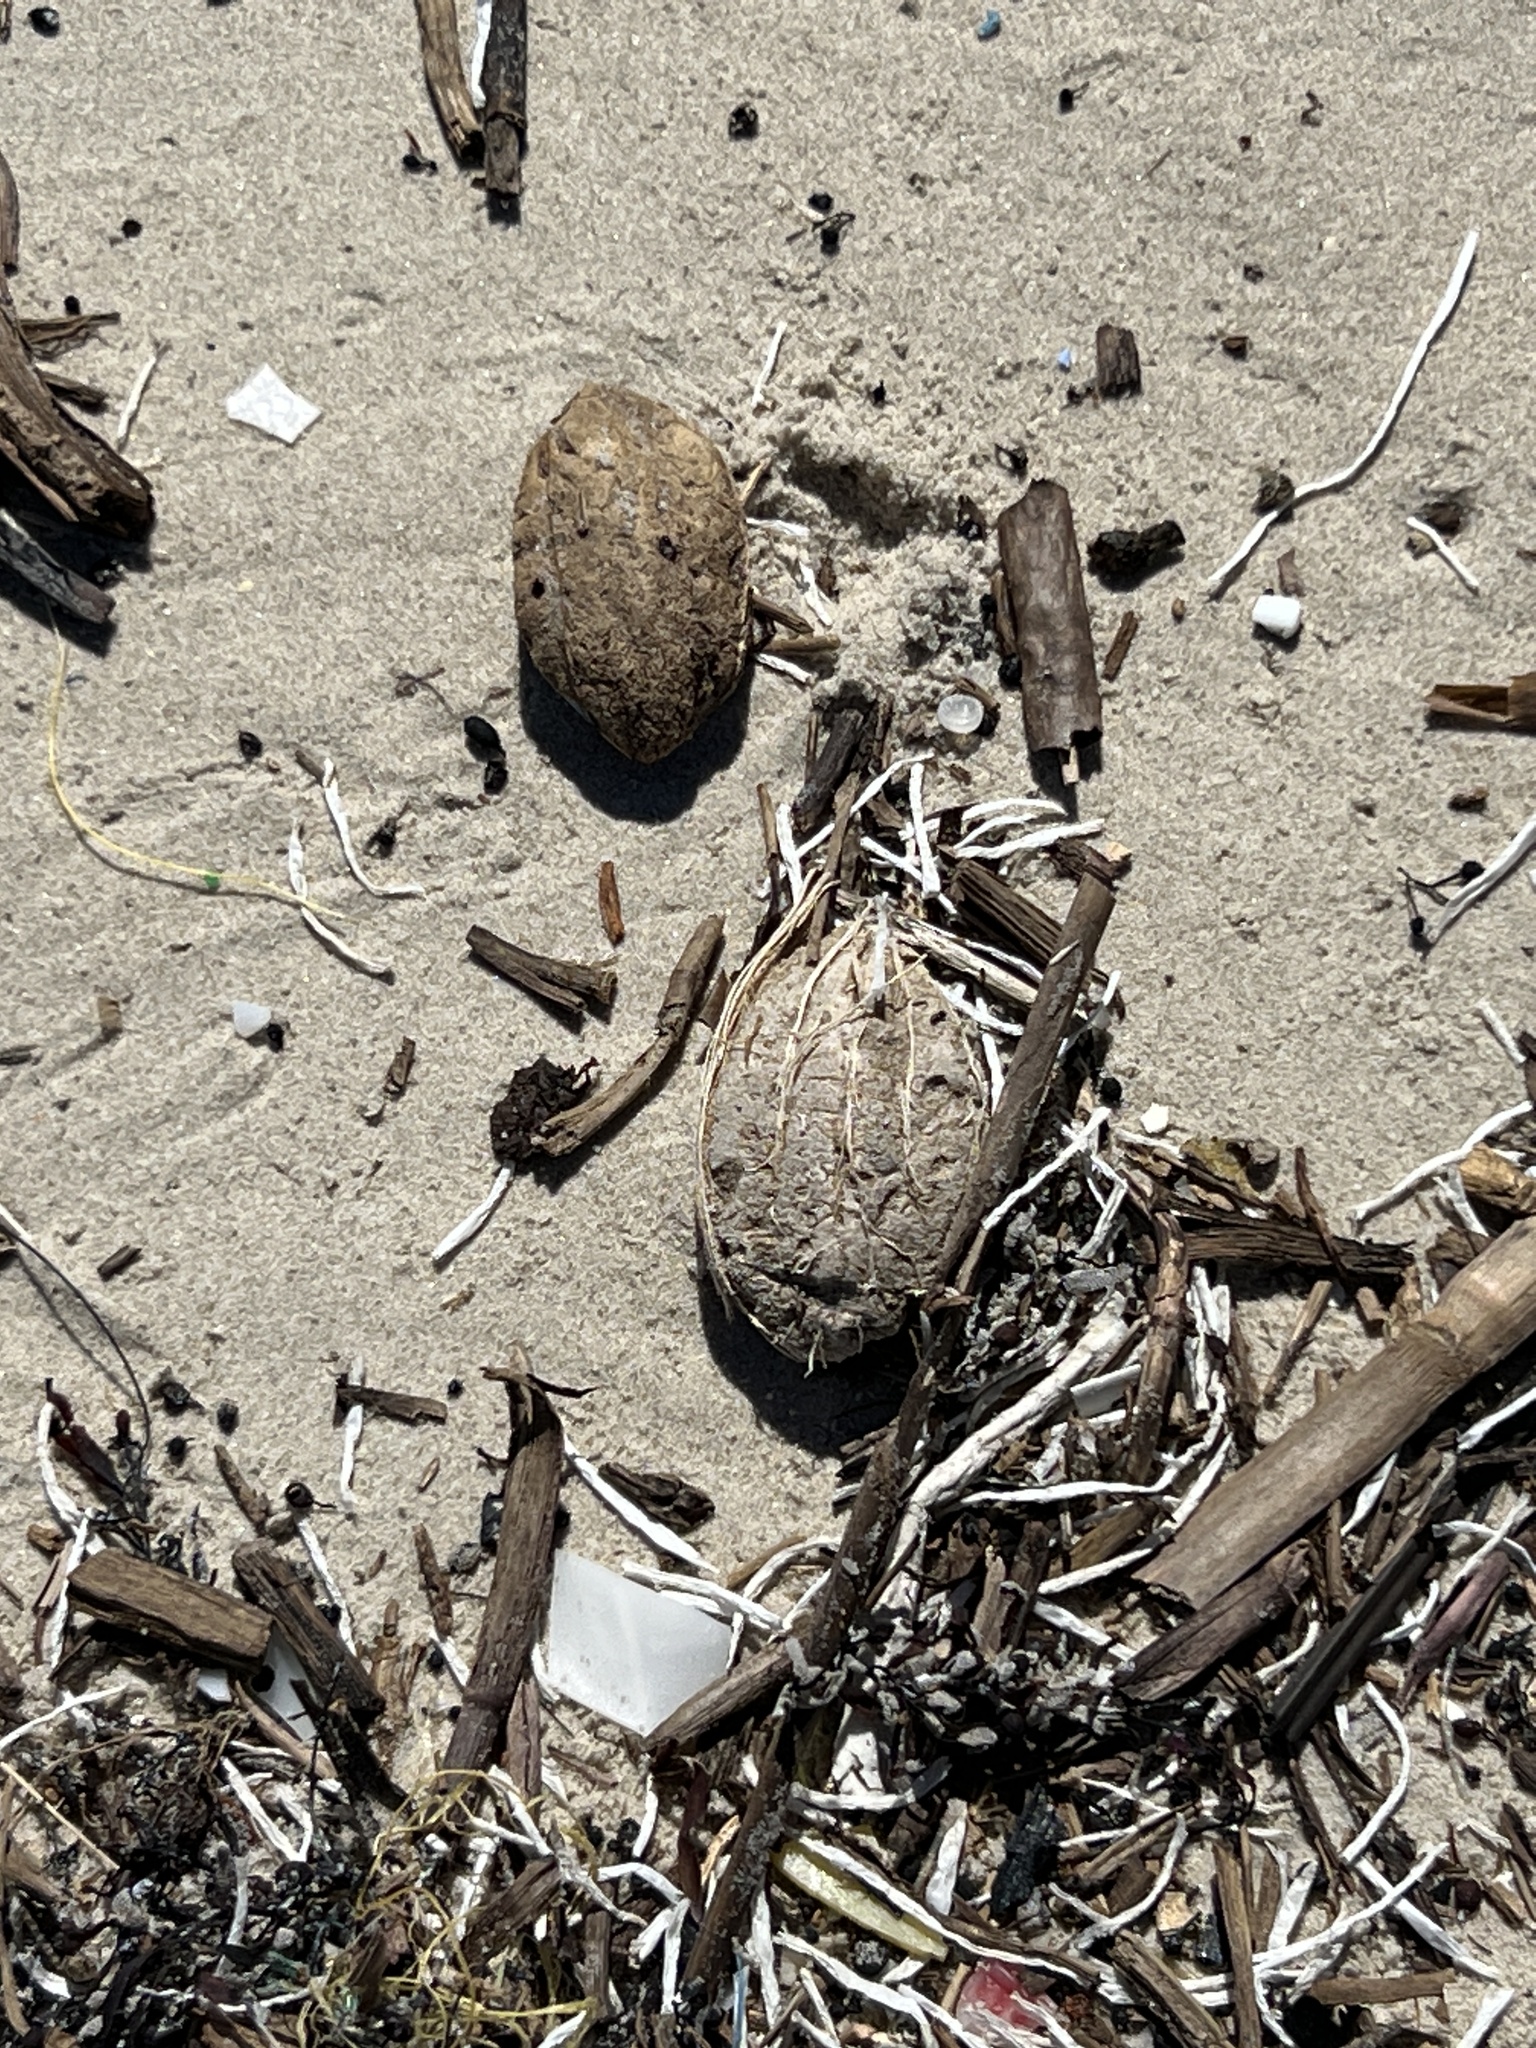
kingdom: Plantae
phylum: Tracheophyta
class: Magnoliopsida
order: Myrtales
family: Combretaceae
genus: Terminalia
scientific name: Terminalia catappa
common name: Tropical almond
